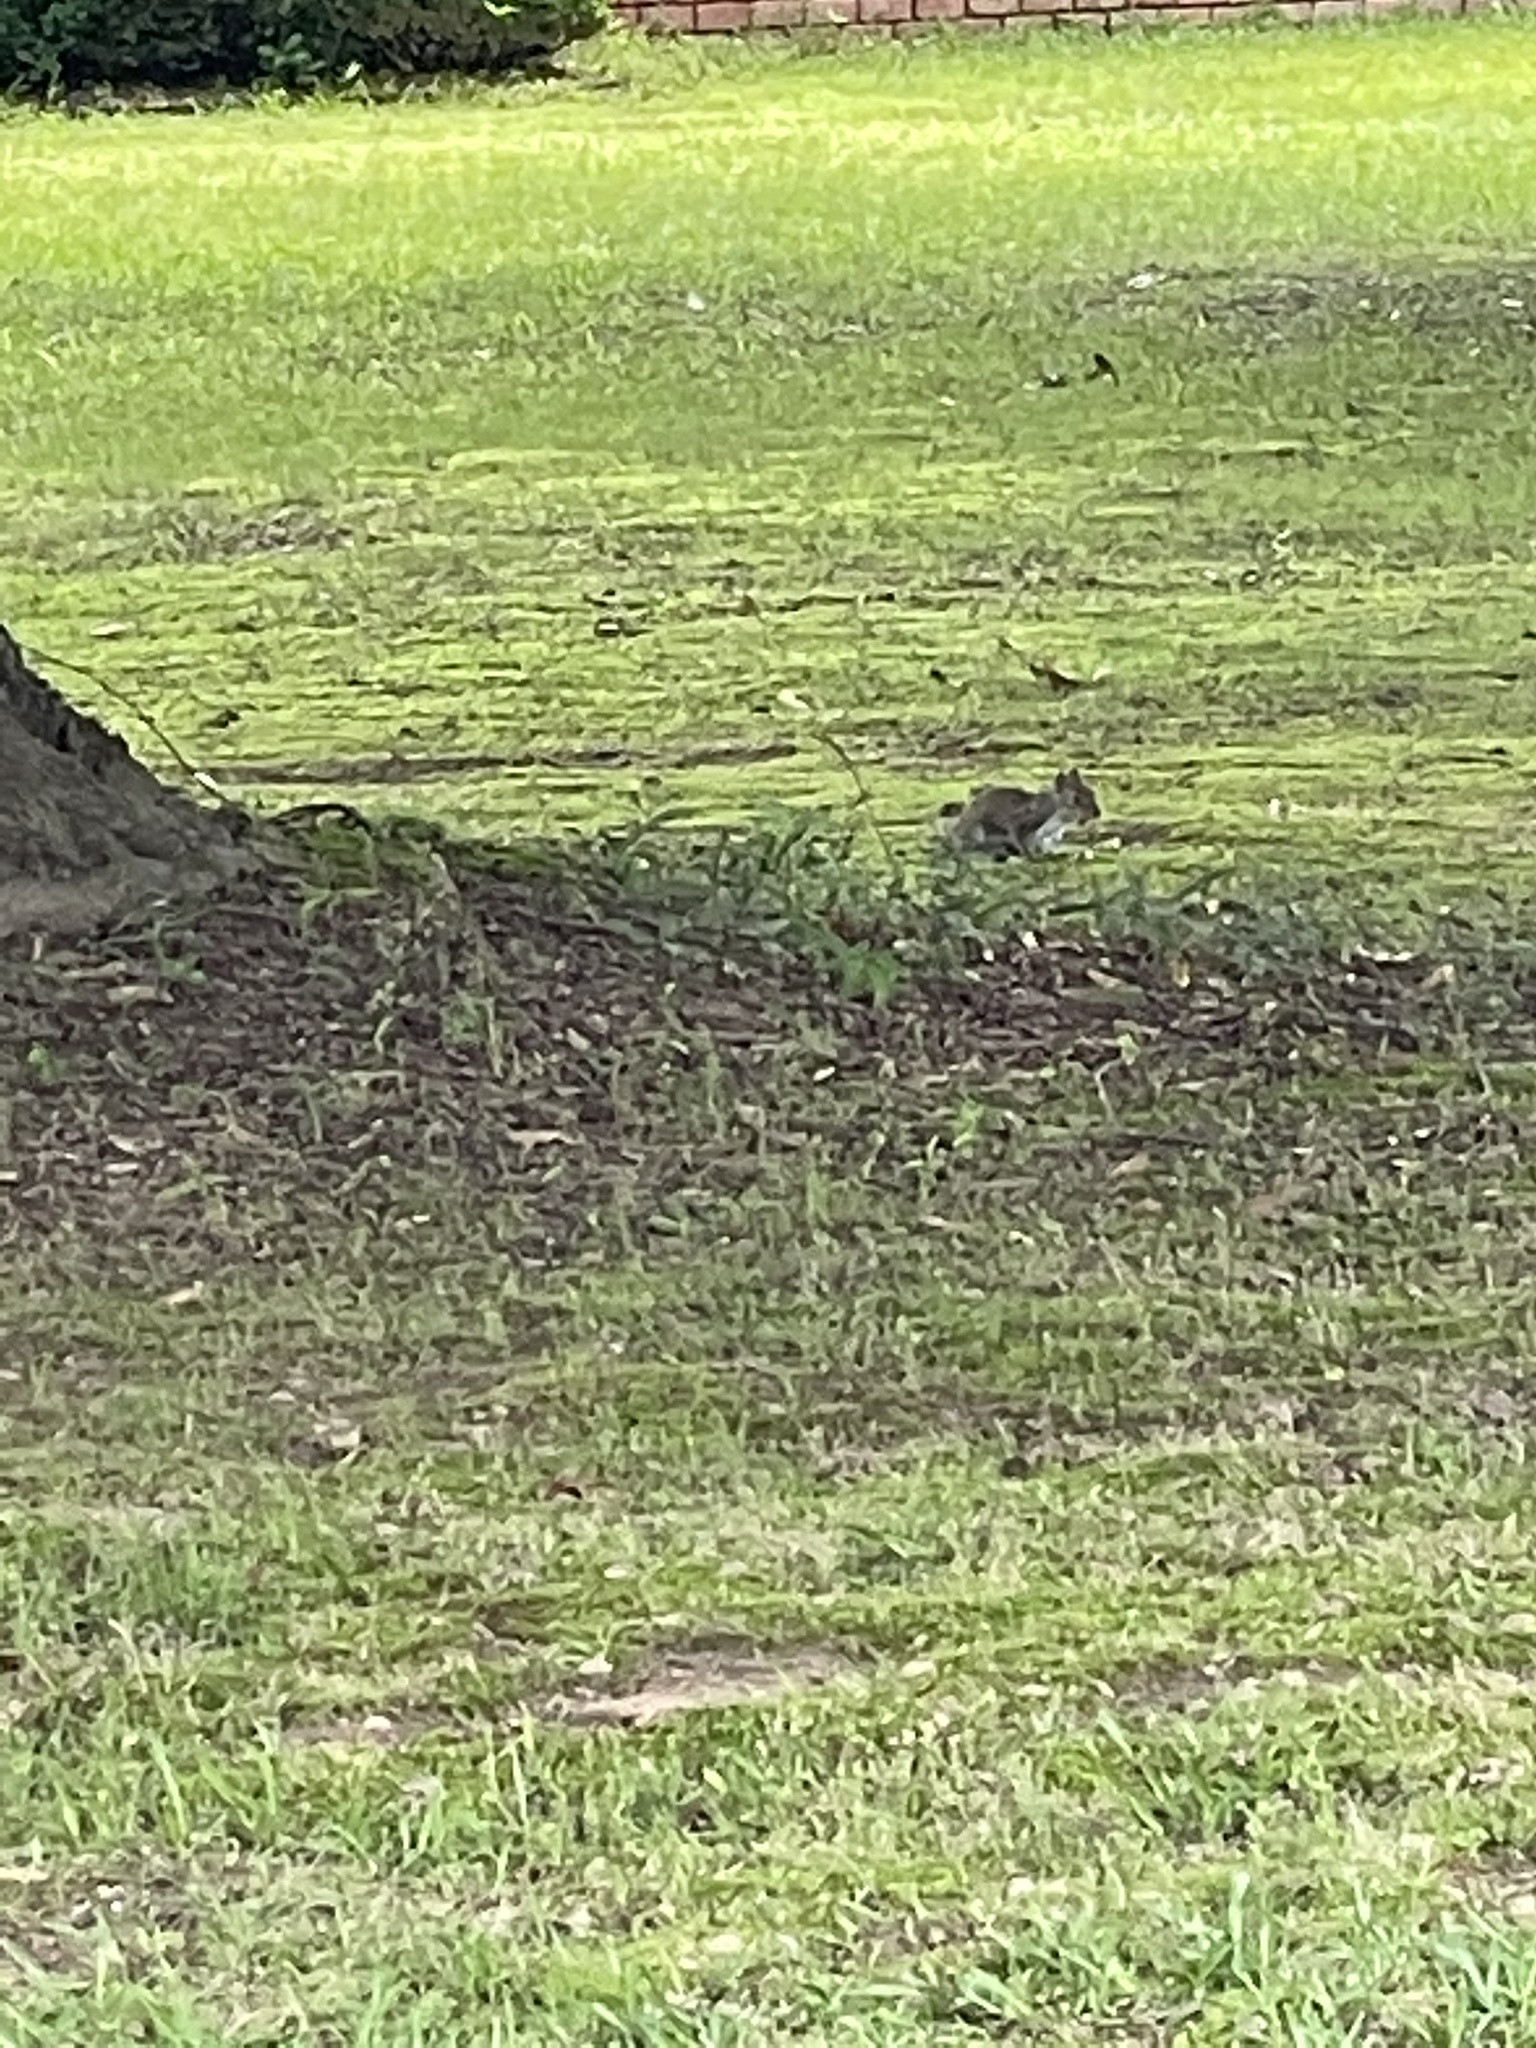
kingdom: Animalia
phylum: Chordata
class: Mammalia
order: Rodentia
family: Sciuridae
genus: Sciurus
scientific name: Sciurus carolinensis
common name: Eastern gray squirrel
